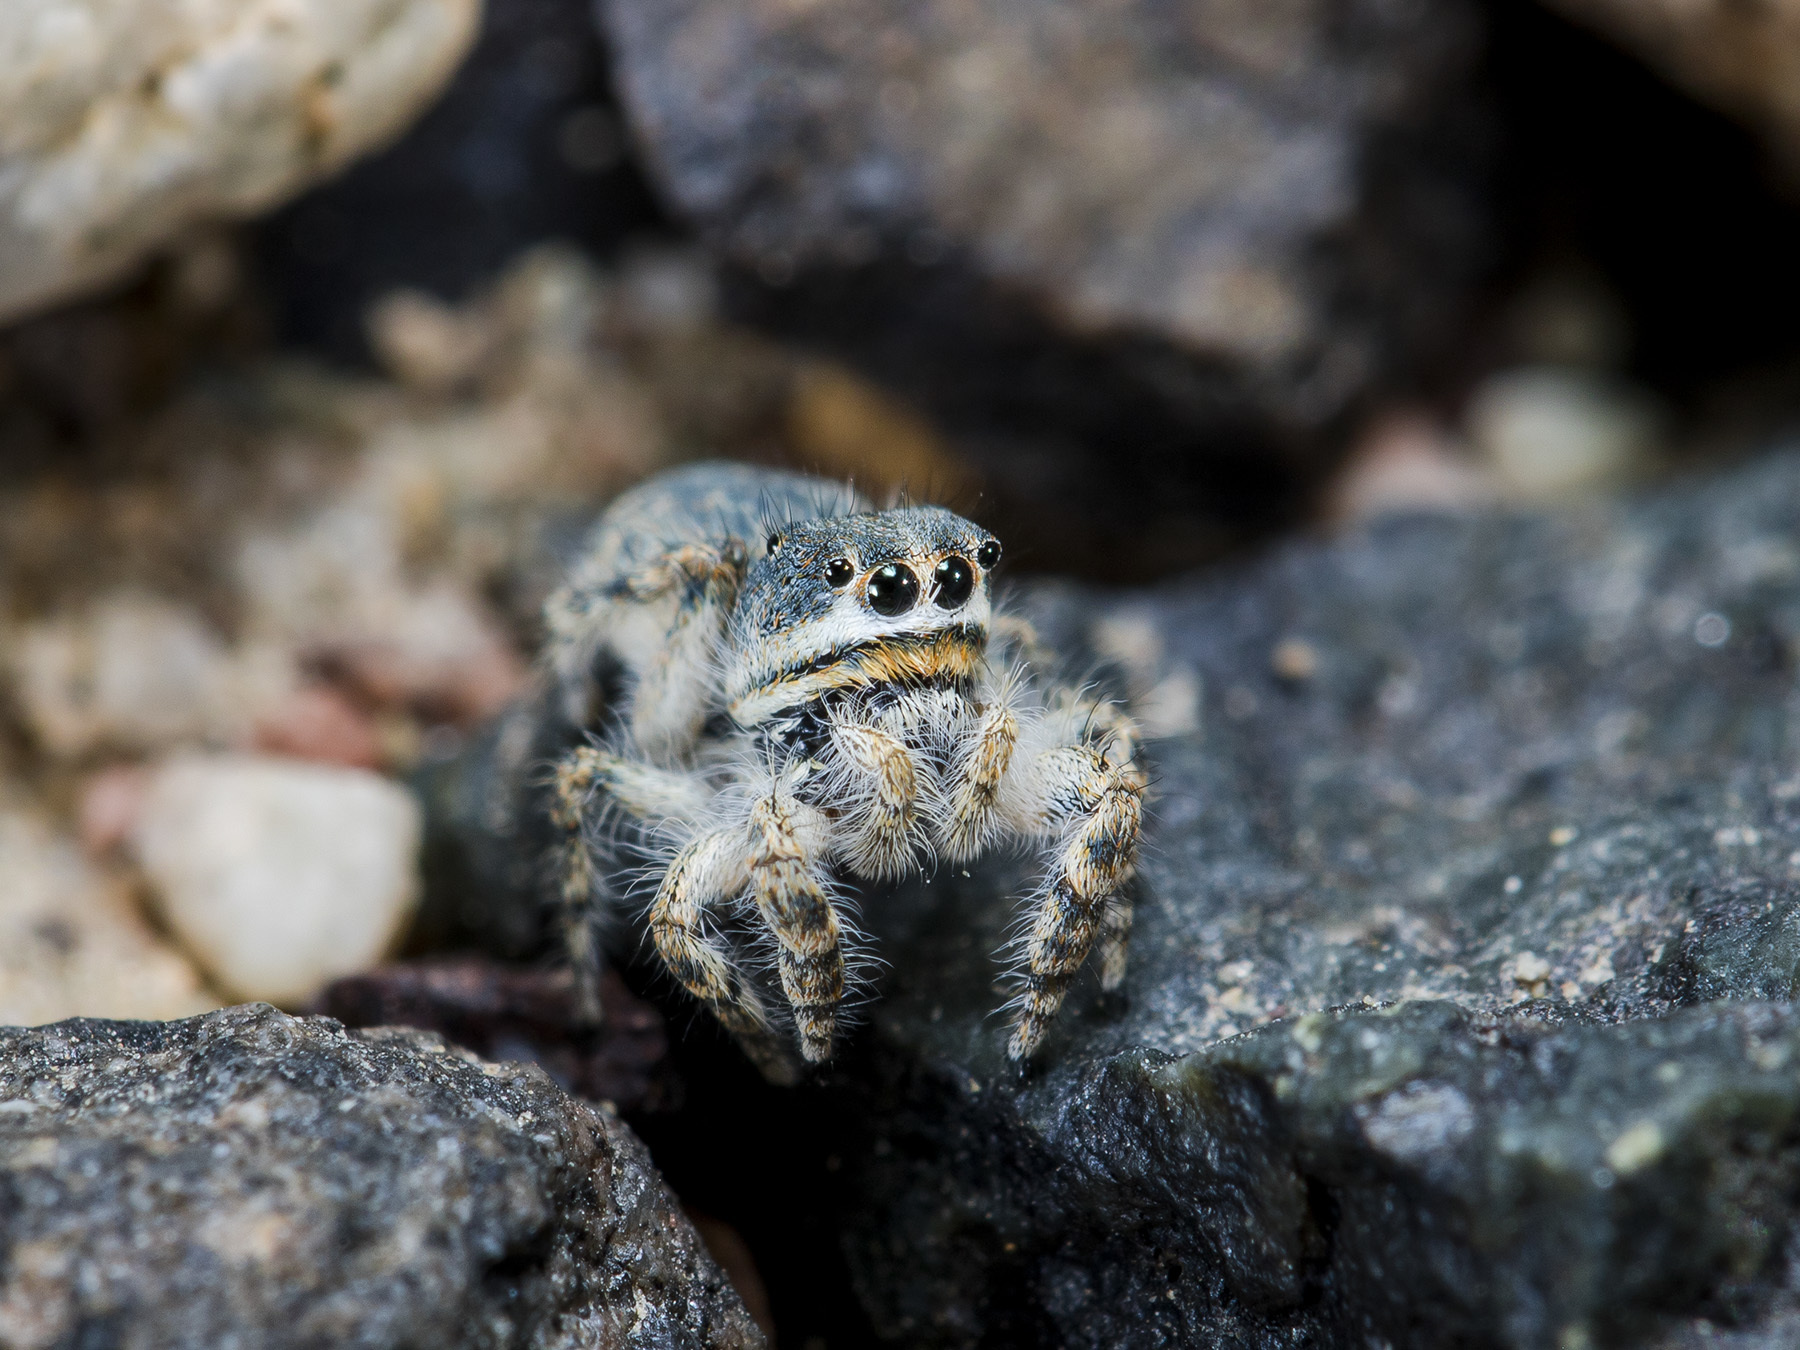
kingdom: Animalia
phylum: Arthropoda
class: Arachnida
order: Araneae
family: Salticidae
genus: Yllenus
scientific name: Yllenus zyuzini
